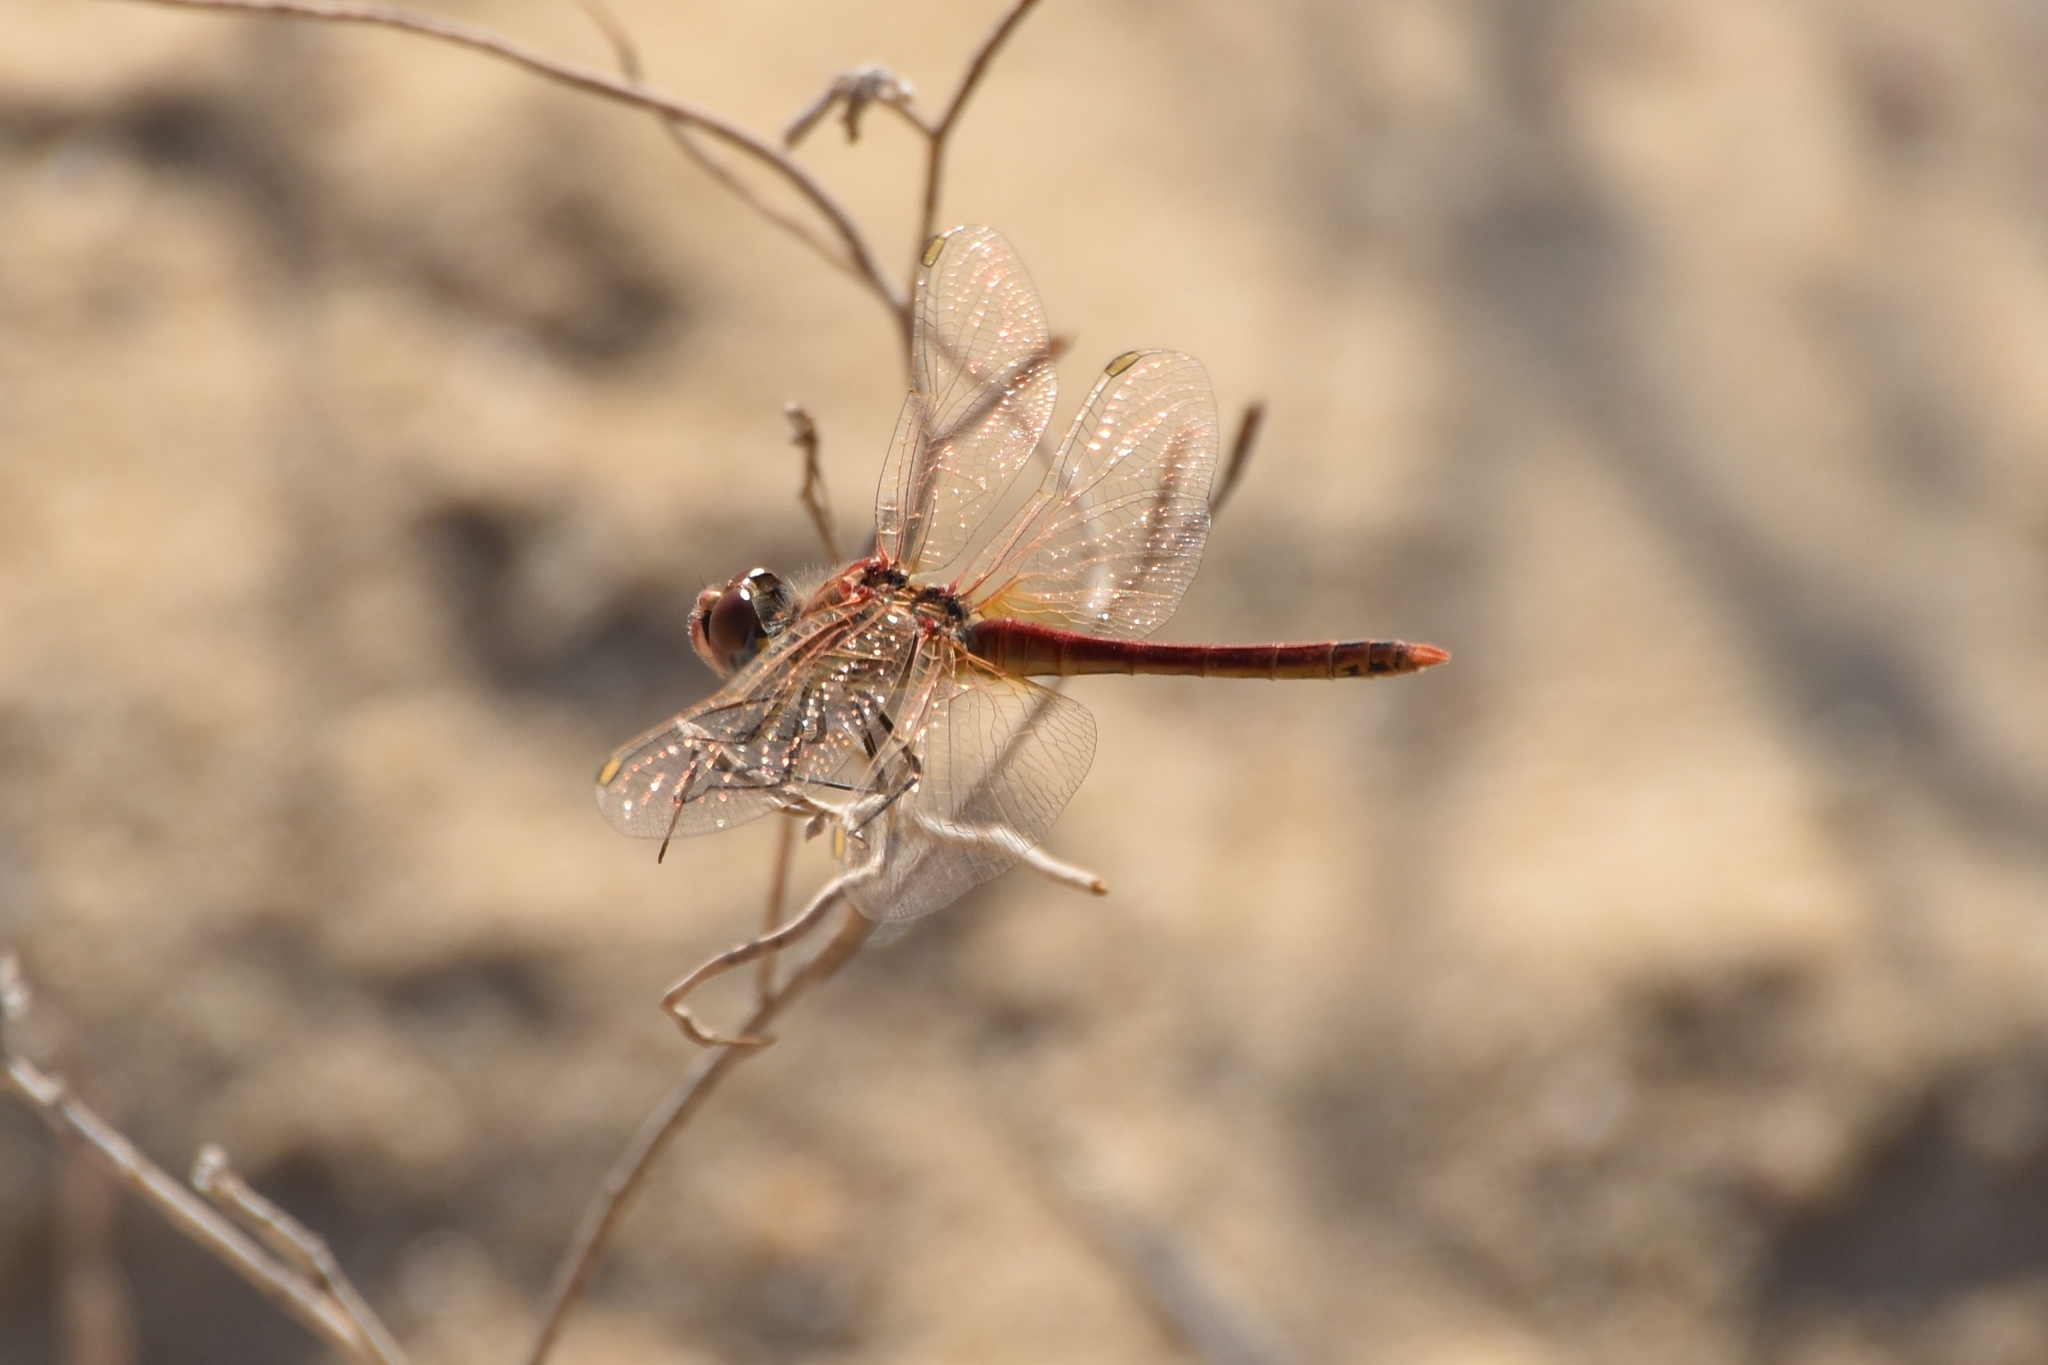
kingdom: Animalia
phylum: Arthropoda
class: Insecta
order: Odonata
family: Libellulidae
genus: Sympetrum
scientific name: Sympetrum fonscolombii
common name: Red-veined darter
